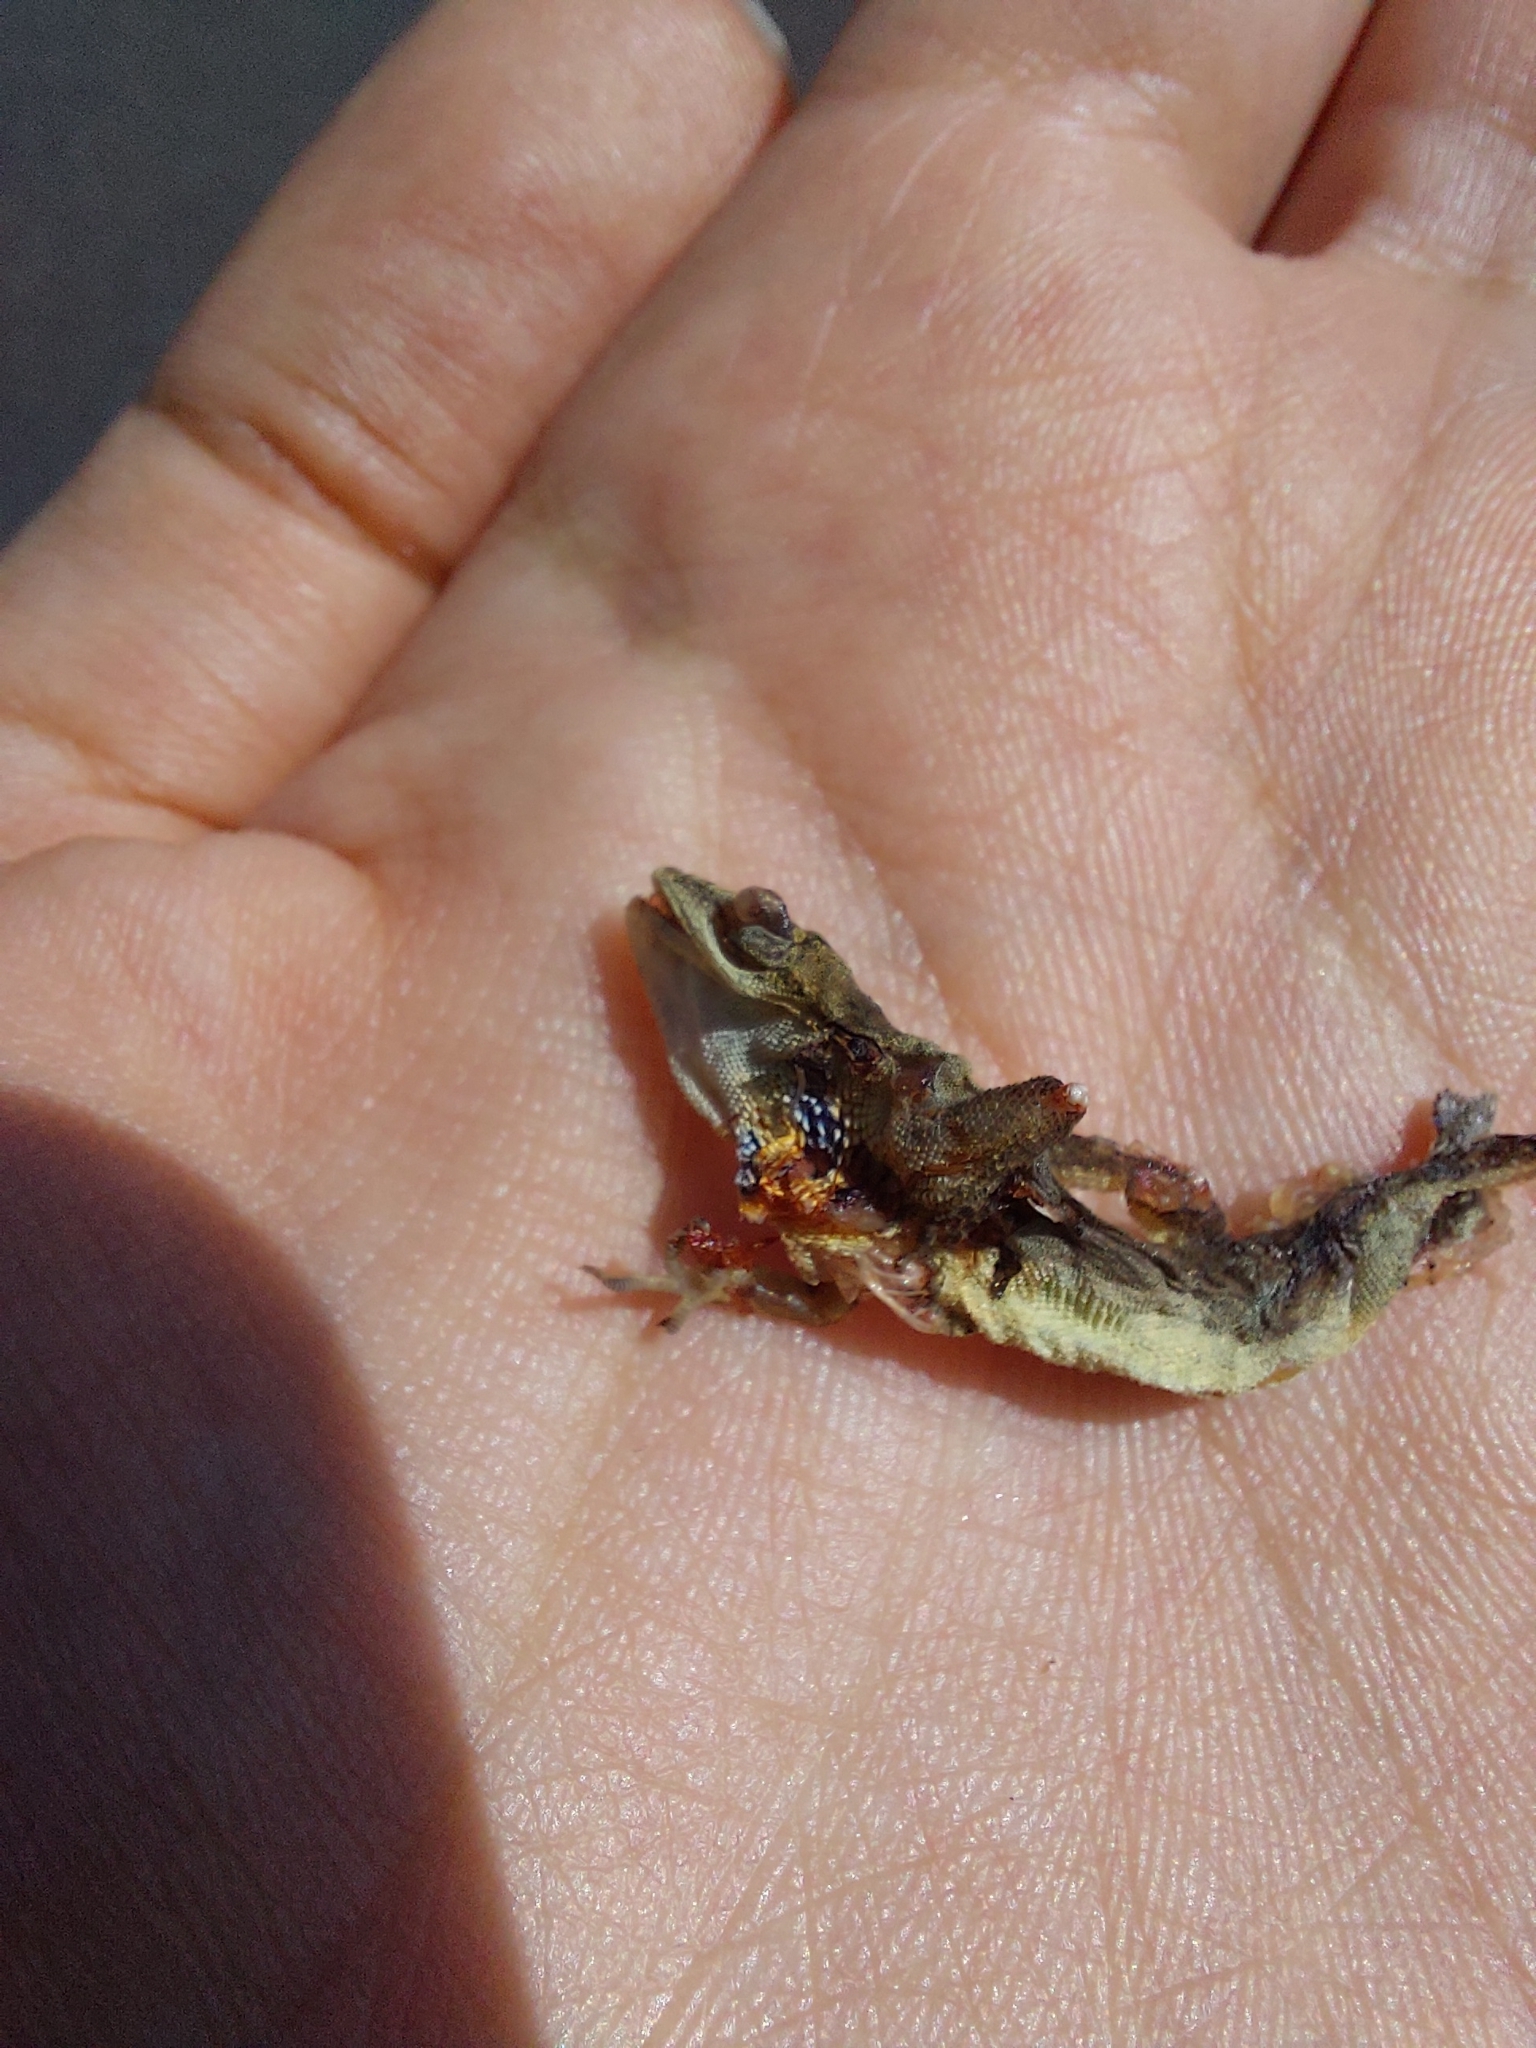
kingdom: Animalia
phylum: Chordata
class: Squamata
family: Dactyloidae
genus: Anolis
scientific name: Anolis unilobatus
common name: Blue-spotted fan anole
